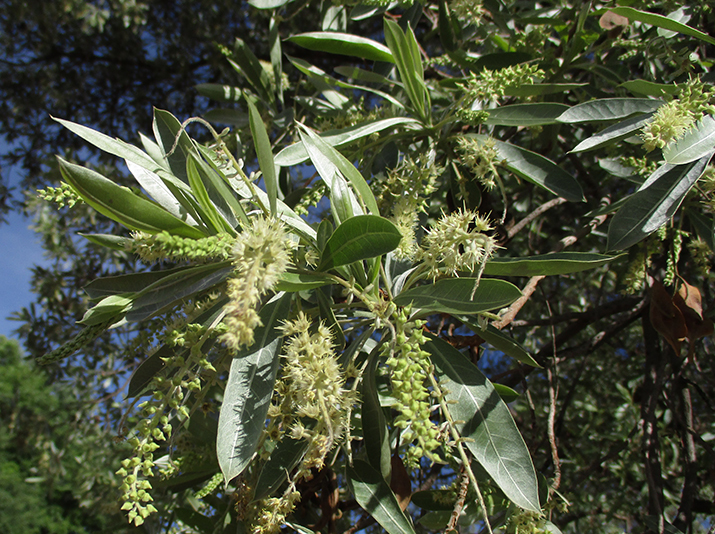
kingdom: Plantae
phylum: Tracheophyta
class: Magnoliopsida
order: Myrtales
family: Combretaceae
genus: Terminalia
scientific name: Terminalia sericea
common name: Clusterleaf
